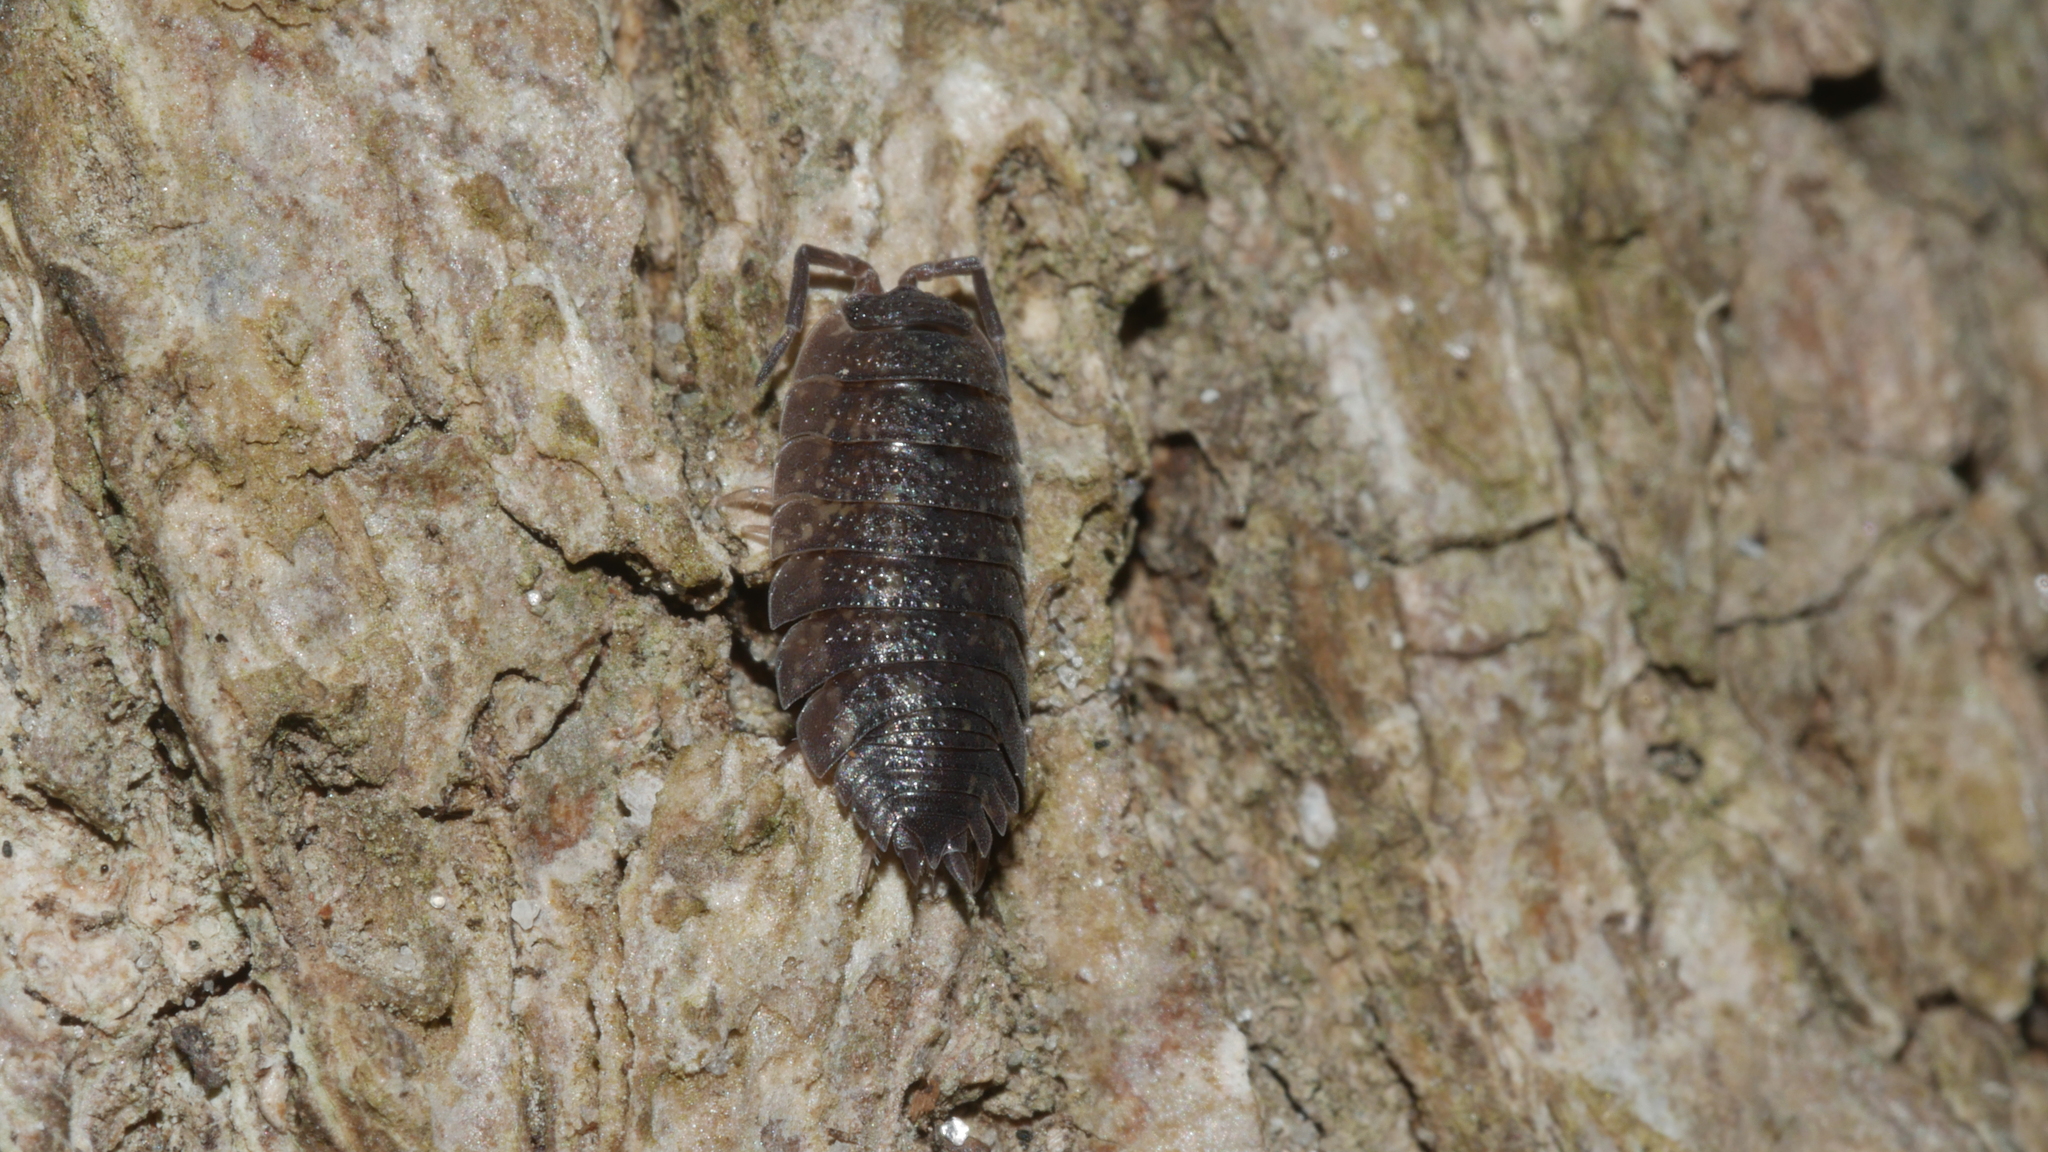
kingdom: Animalia
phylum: Arthropoda
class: Malacostraca
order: Isopoda
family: Porcellionidae
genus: Porcellio
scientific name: Porcellio scaber
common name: Common rough woodlouse
